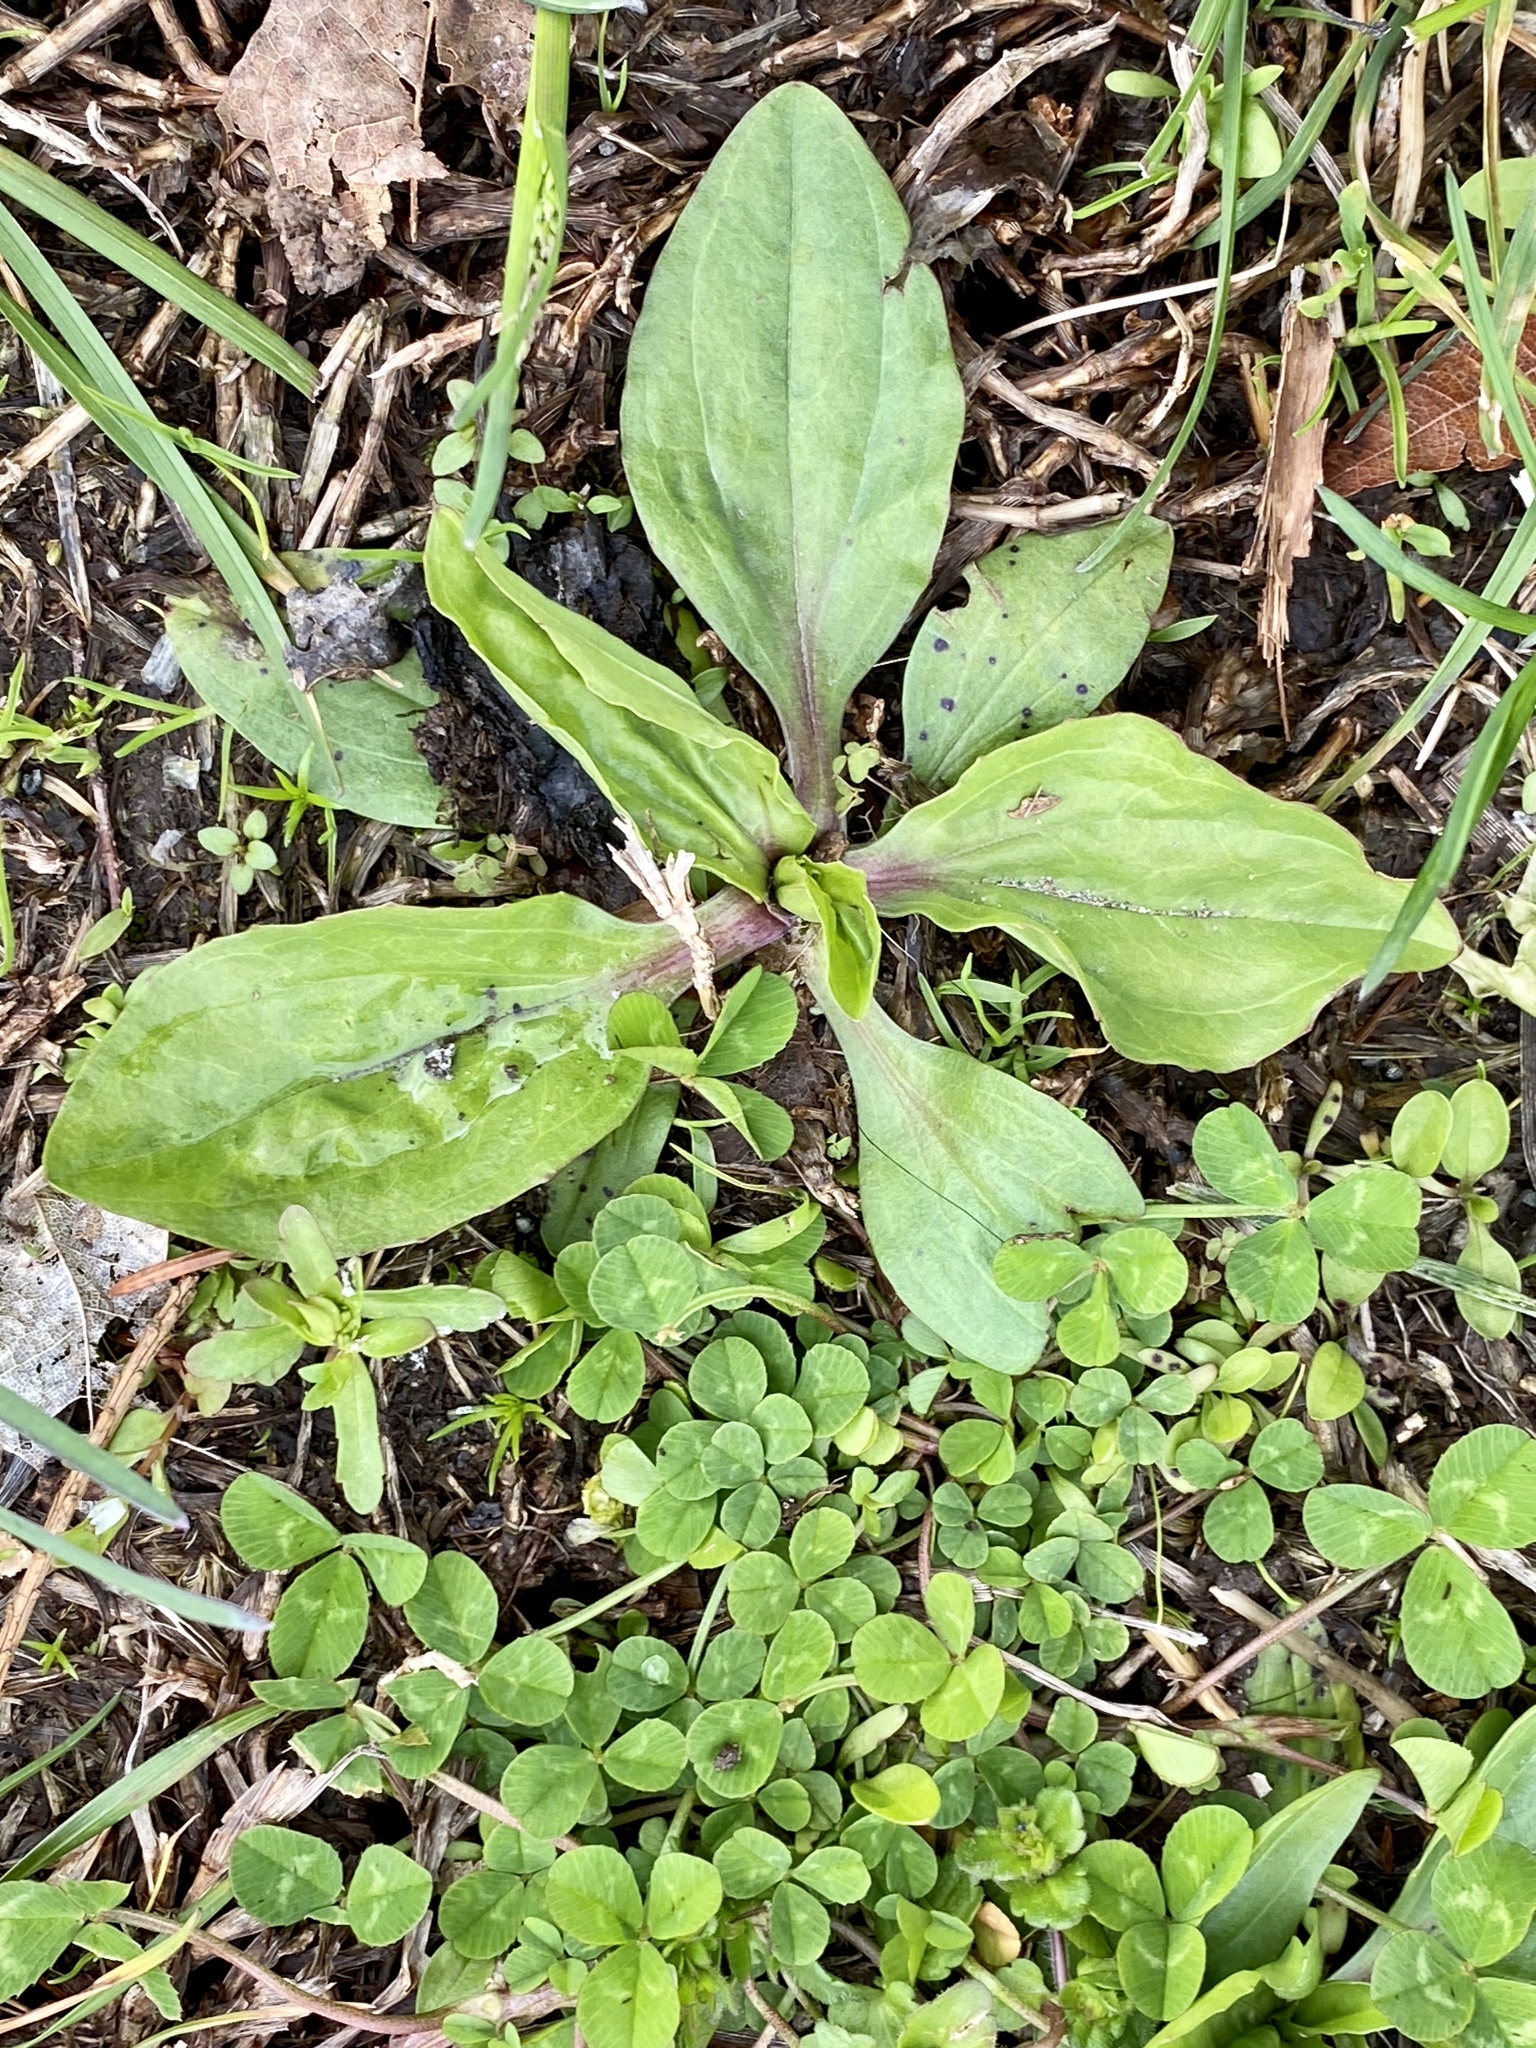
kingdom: Plantae
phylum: Tracheophyta
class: Magnoliopsida
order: Lamiales
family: Plantaginaceae
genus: Plantago
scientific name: Plantago rugelii
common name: American plantain
